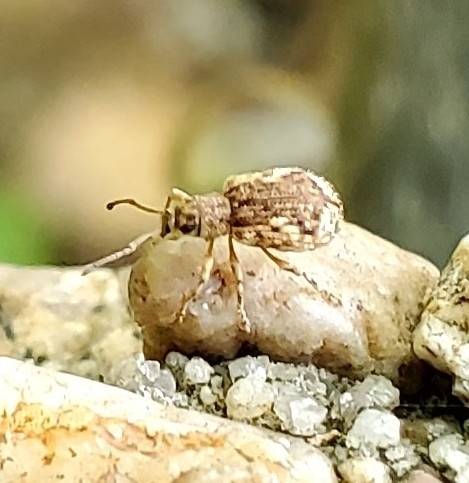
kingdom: Animalia
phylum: Arthropoda
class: Insecta
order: Coleoptera
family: Curculionidae
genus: Pseudoedophrys
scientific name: Pseudoedophrys hilleri
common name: Weevil
